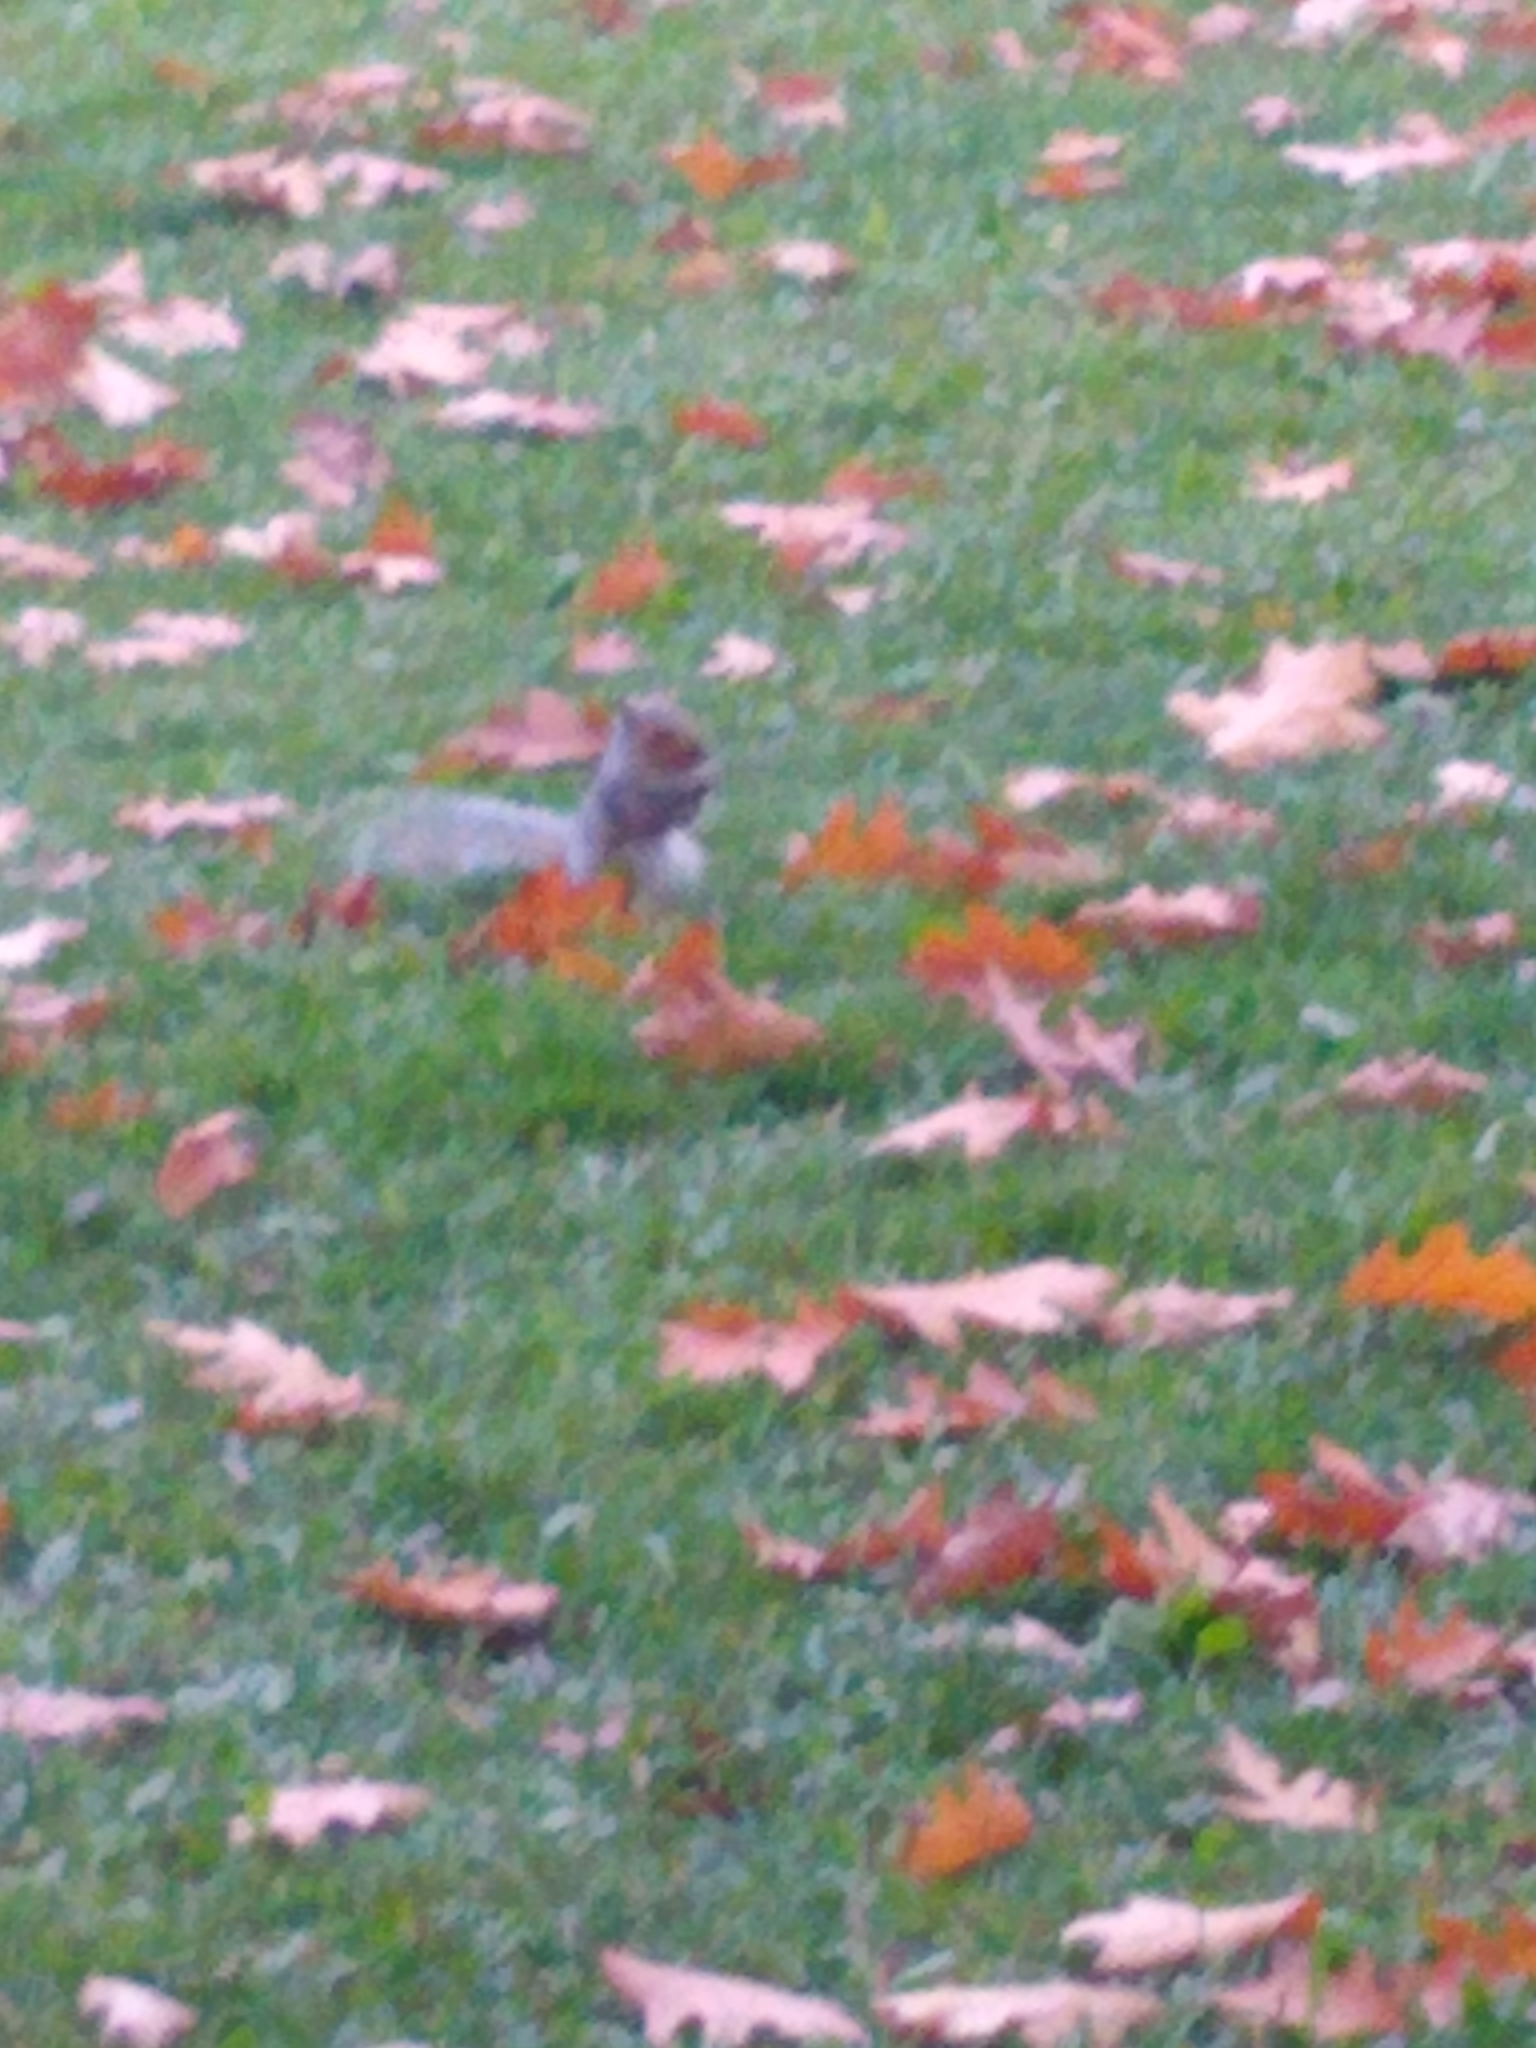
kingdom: Animalia
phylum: Chordata
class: Mammalia
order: Rodentia
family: Sciuridae
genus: Sciurus
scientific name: Sciurus carolinensis
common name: Eastern gray squirrel
